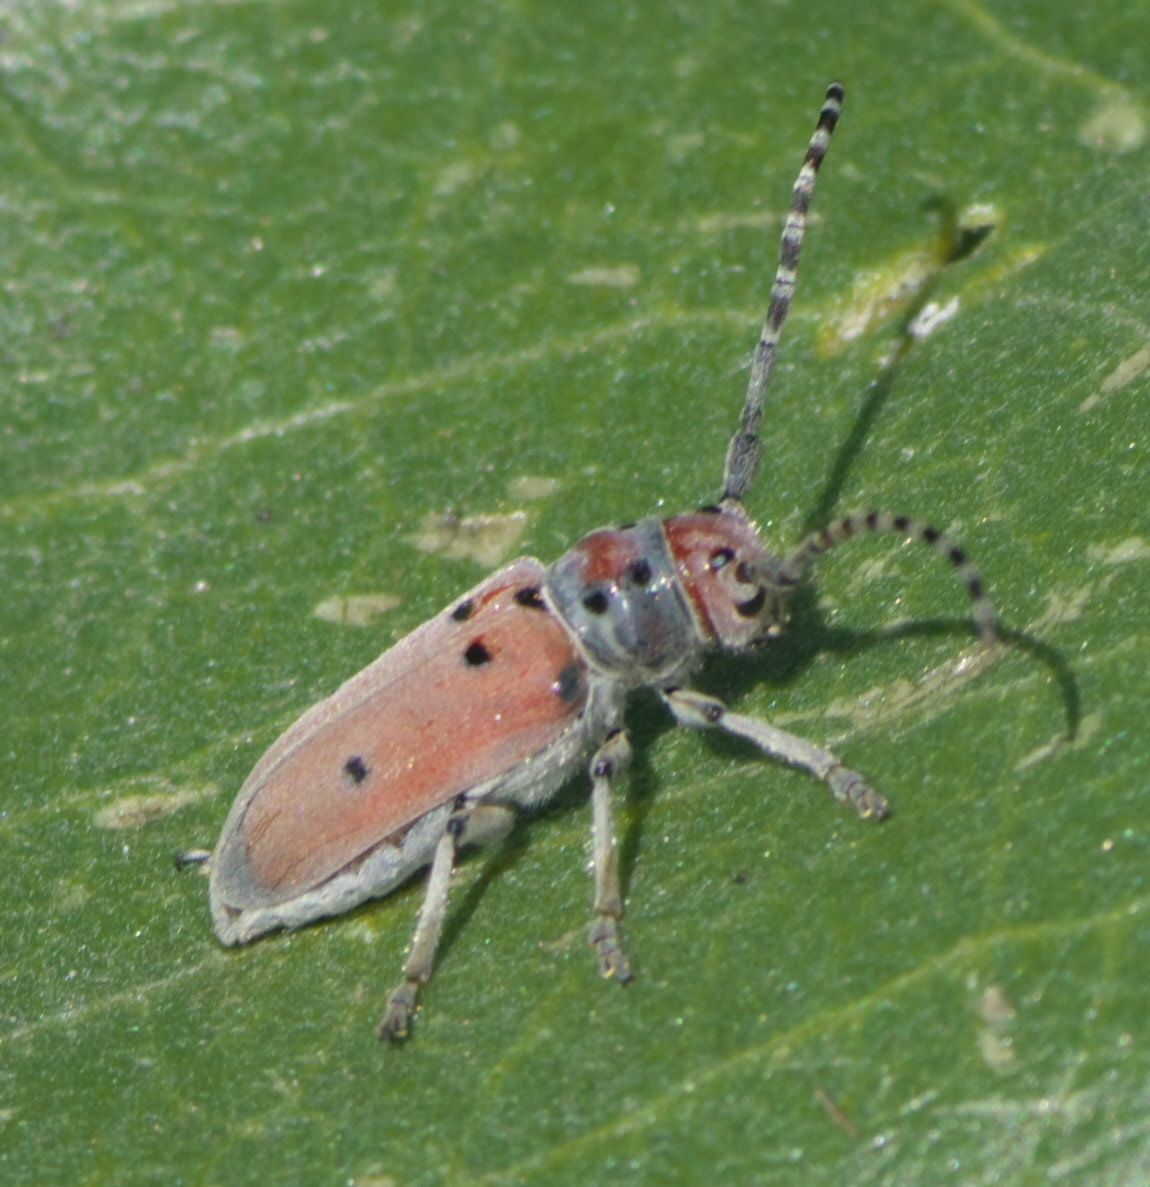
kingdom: Animalia
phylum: Arthropoda
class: Insecta
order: Coleoptera
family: Cerambycidae
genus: Tetraopes
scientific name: Tetraopes annulatus
